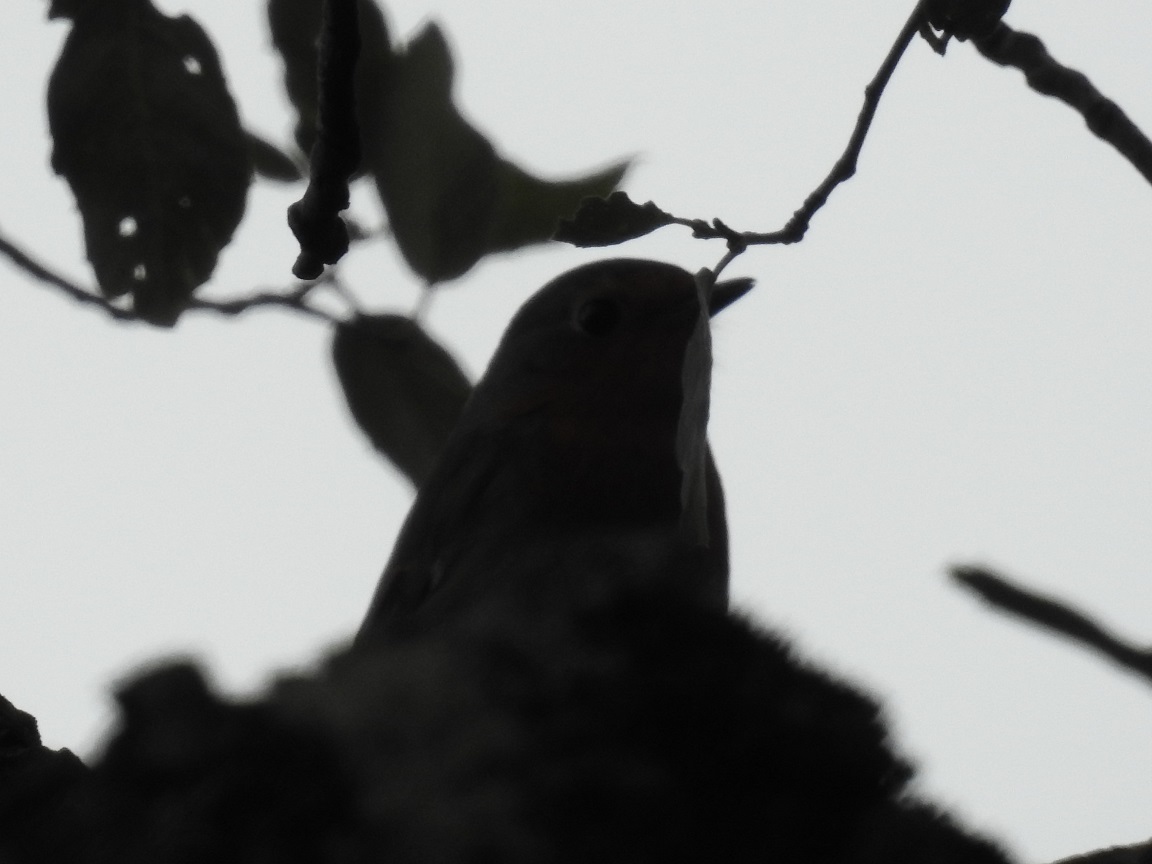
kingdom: Animalia
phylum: Chordata
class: Aves
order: Passeriformes
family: Muscicapidae
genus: Erithacus
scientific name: Erithacus rubecula
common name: European robin
